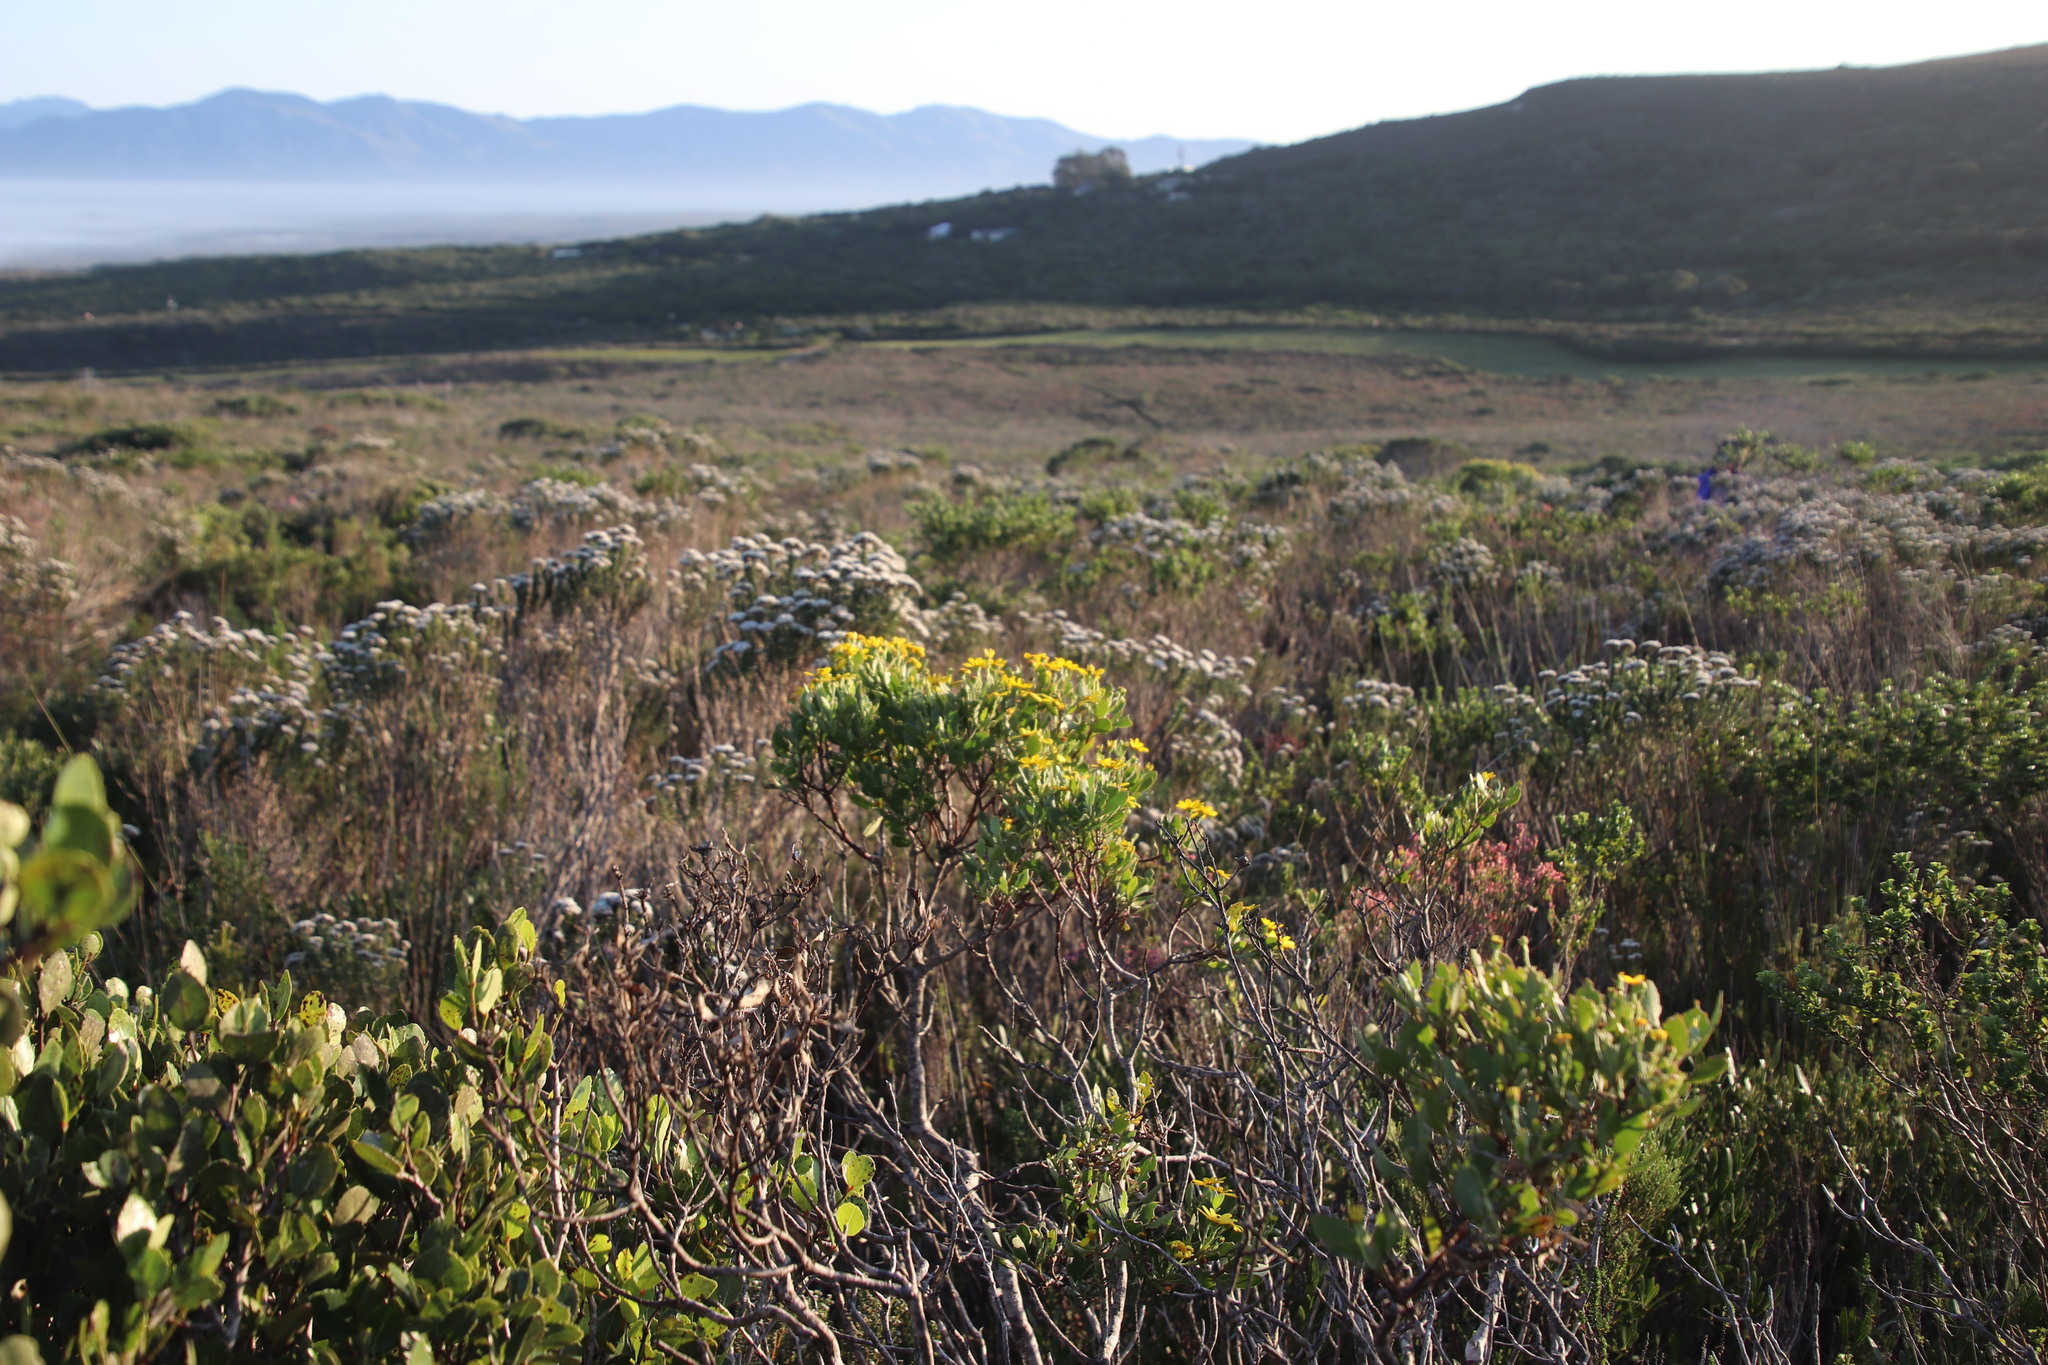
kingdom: Plantae
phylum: Tracheophyta
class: Magnoliopsida
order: Asterales
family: Asteraceae
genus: Osteospermum
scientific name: Osteospermum moniliferum
